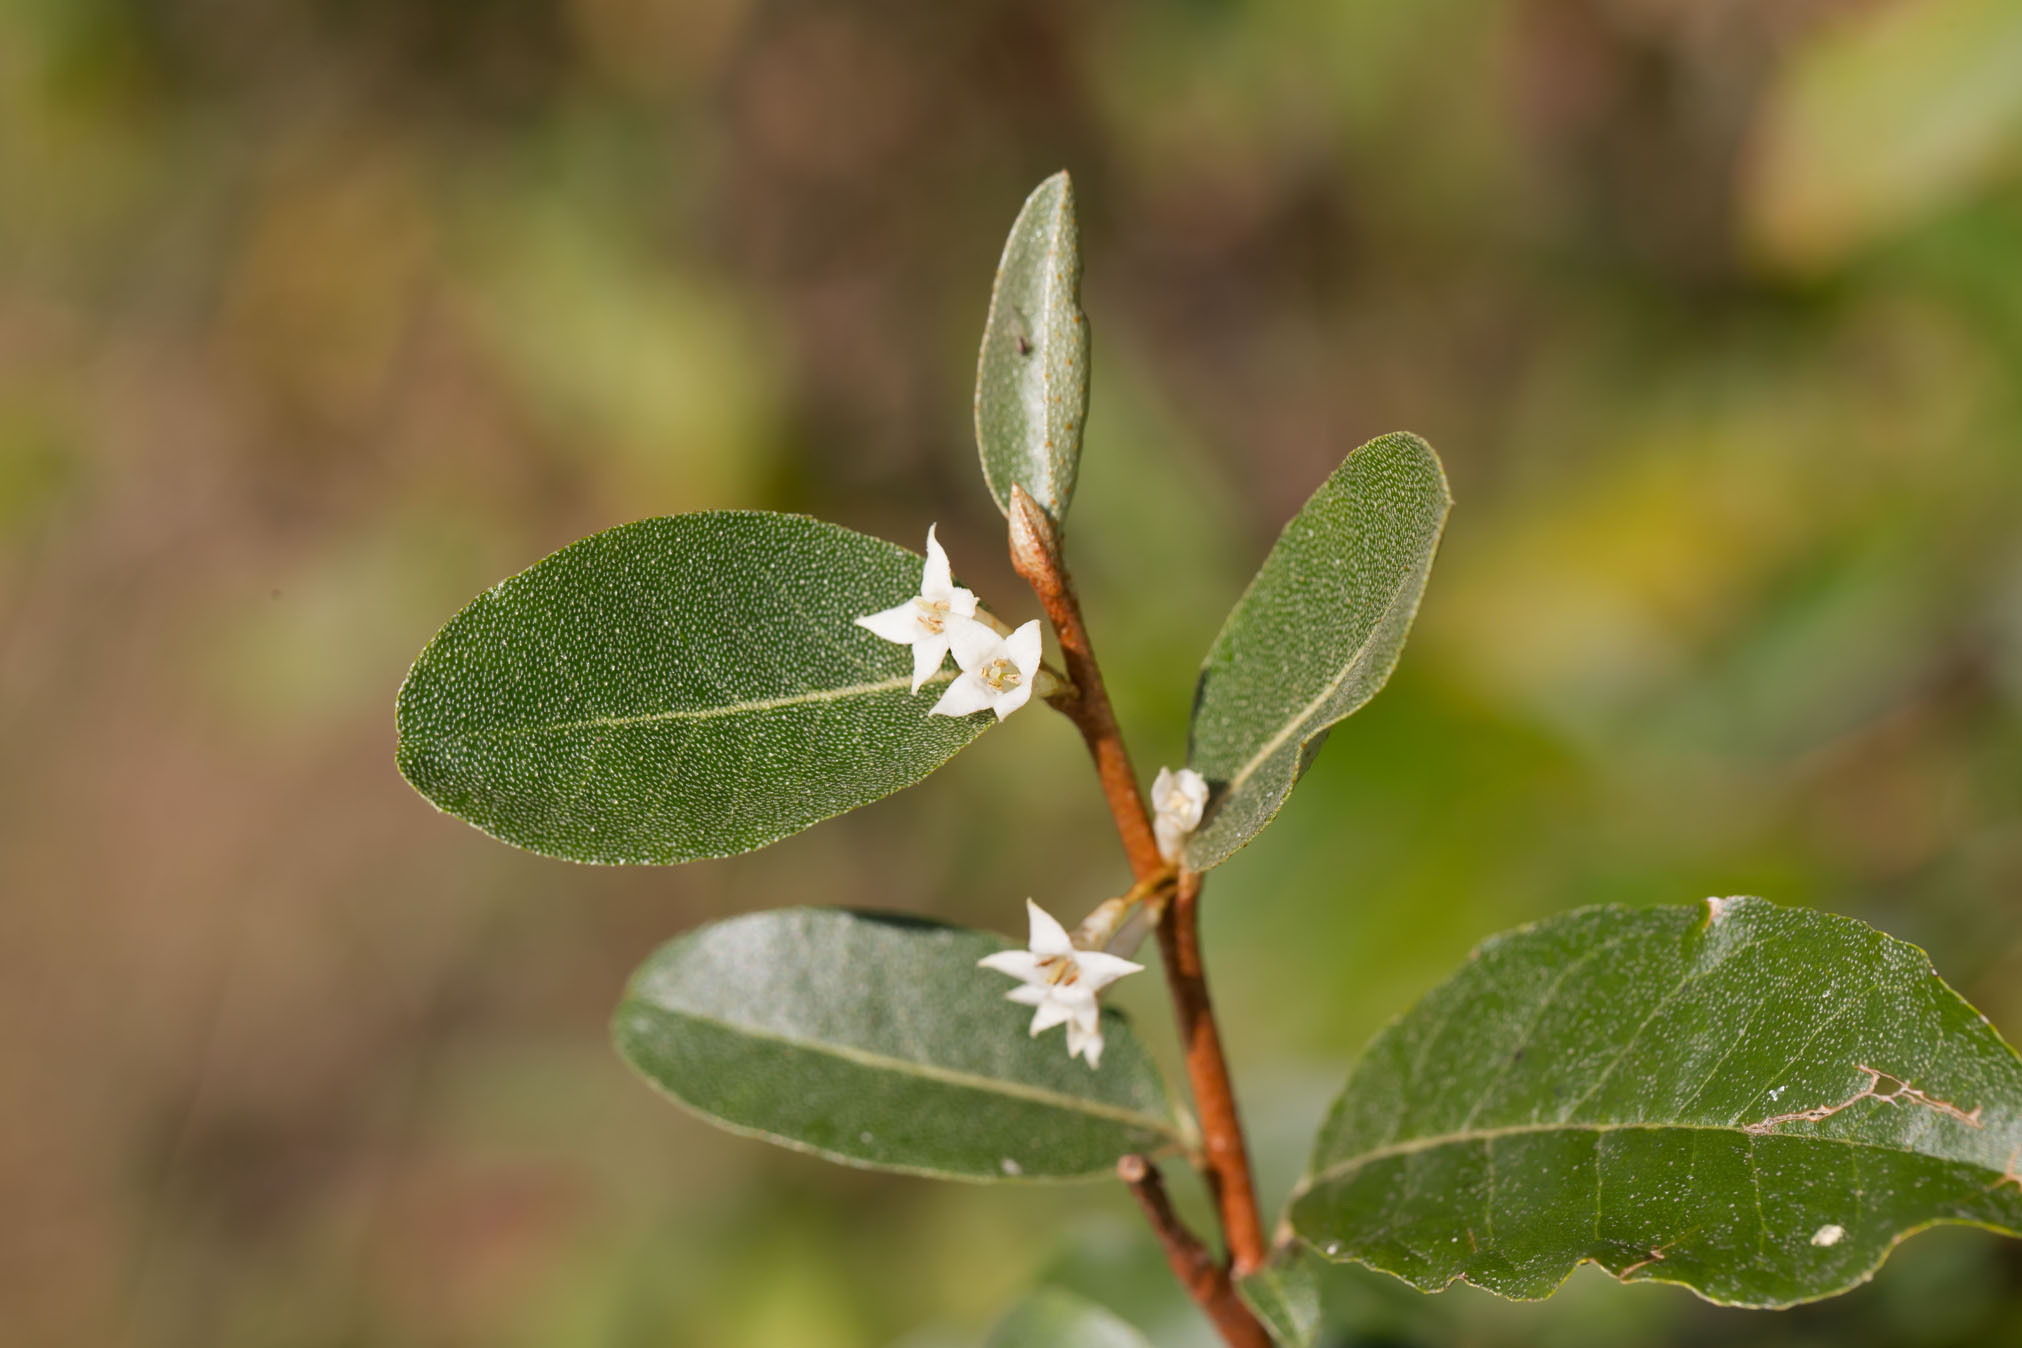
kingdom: Plantae
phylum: Tracheophyta
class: Magnoliopsida
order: Rosales
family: Elaeagnaceae
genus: Elaeagnus
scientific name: Elaeagnus umbellata
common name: Autumn olive
